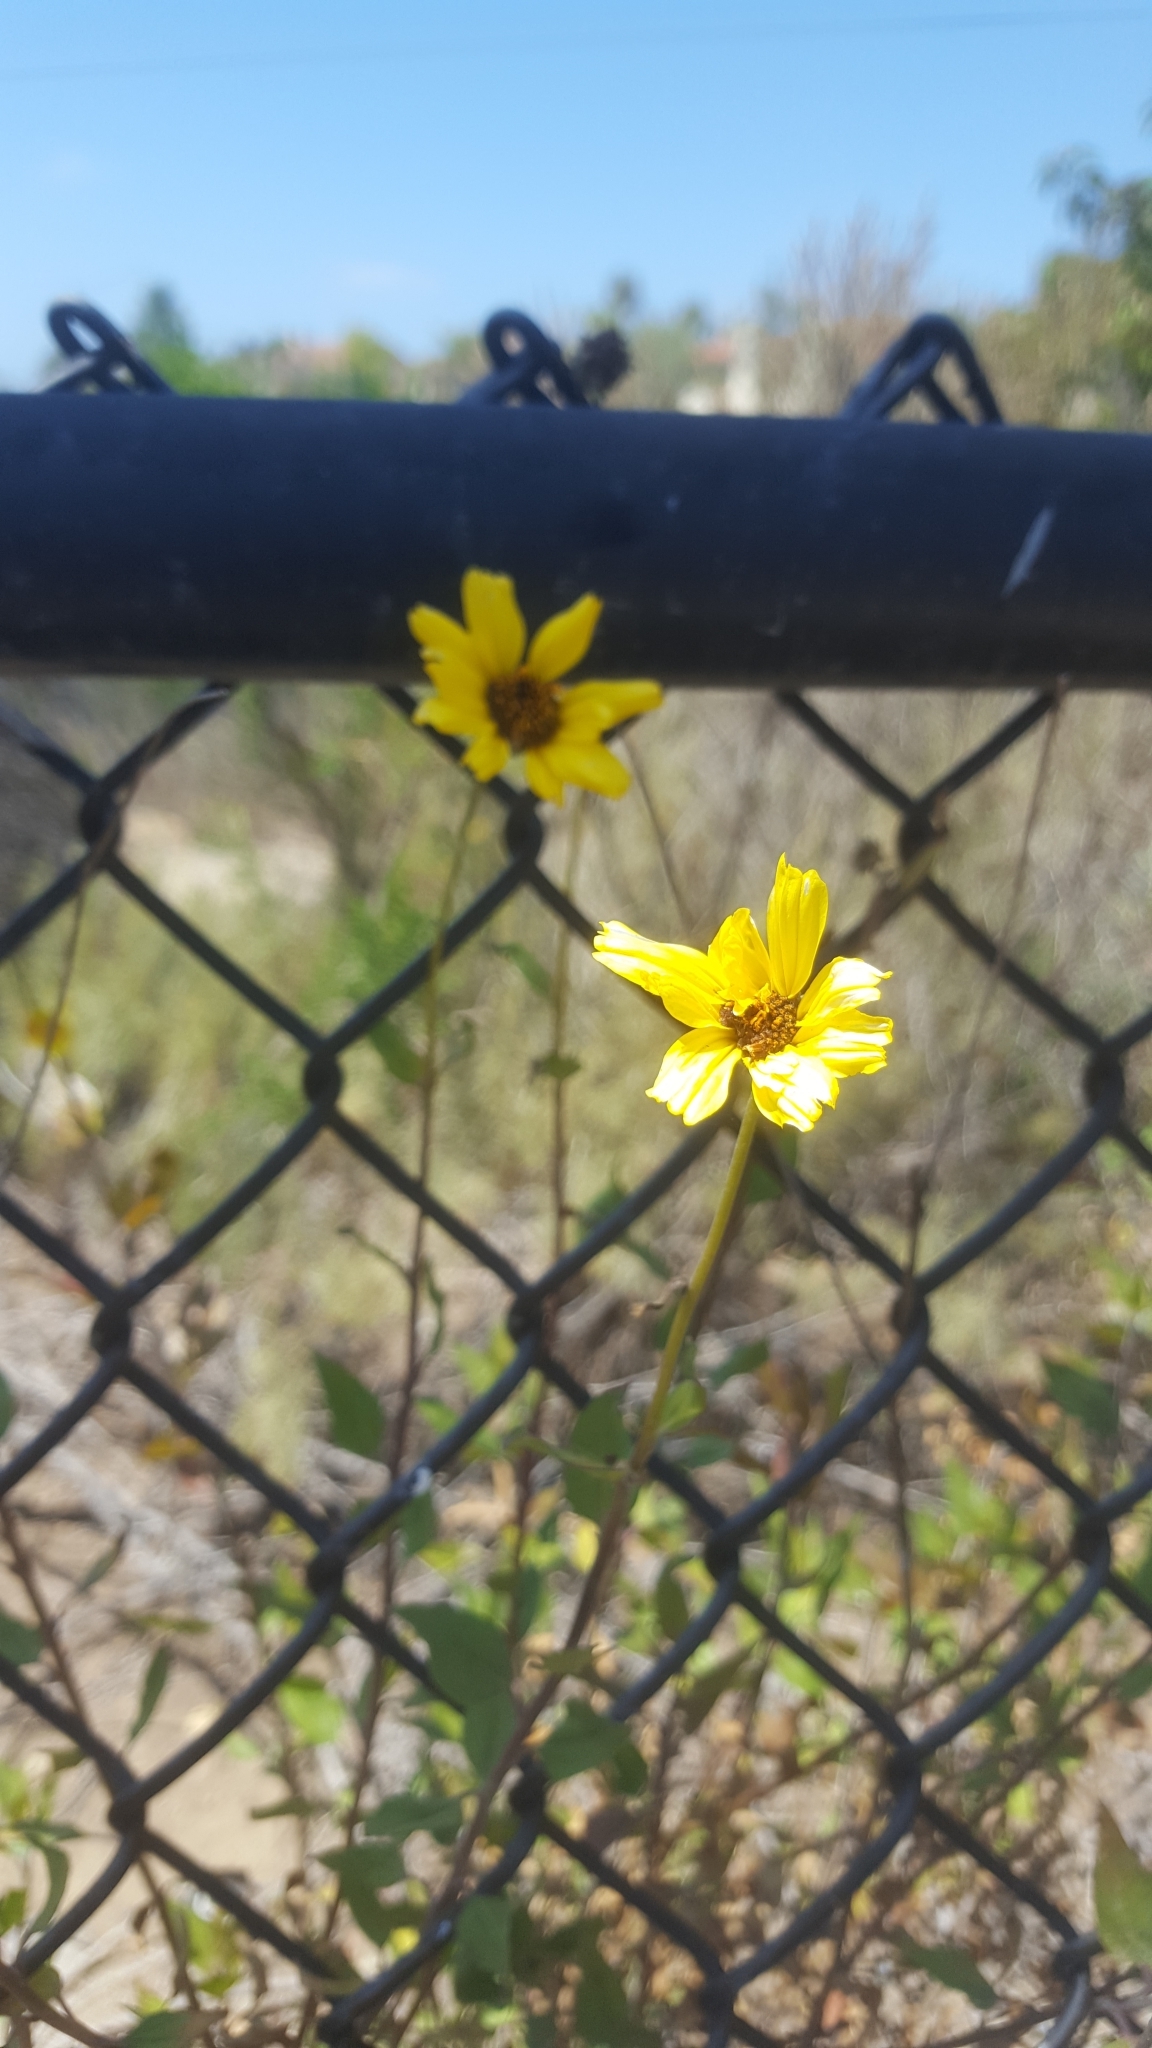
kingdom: Plantae
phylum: Tracheophyta
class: Magnoliopsida
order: Asterales
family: Asteraceae
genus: Encelia
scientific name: Encelia californica
